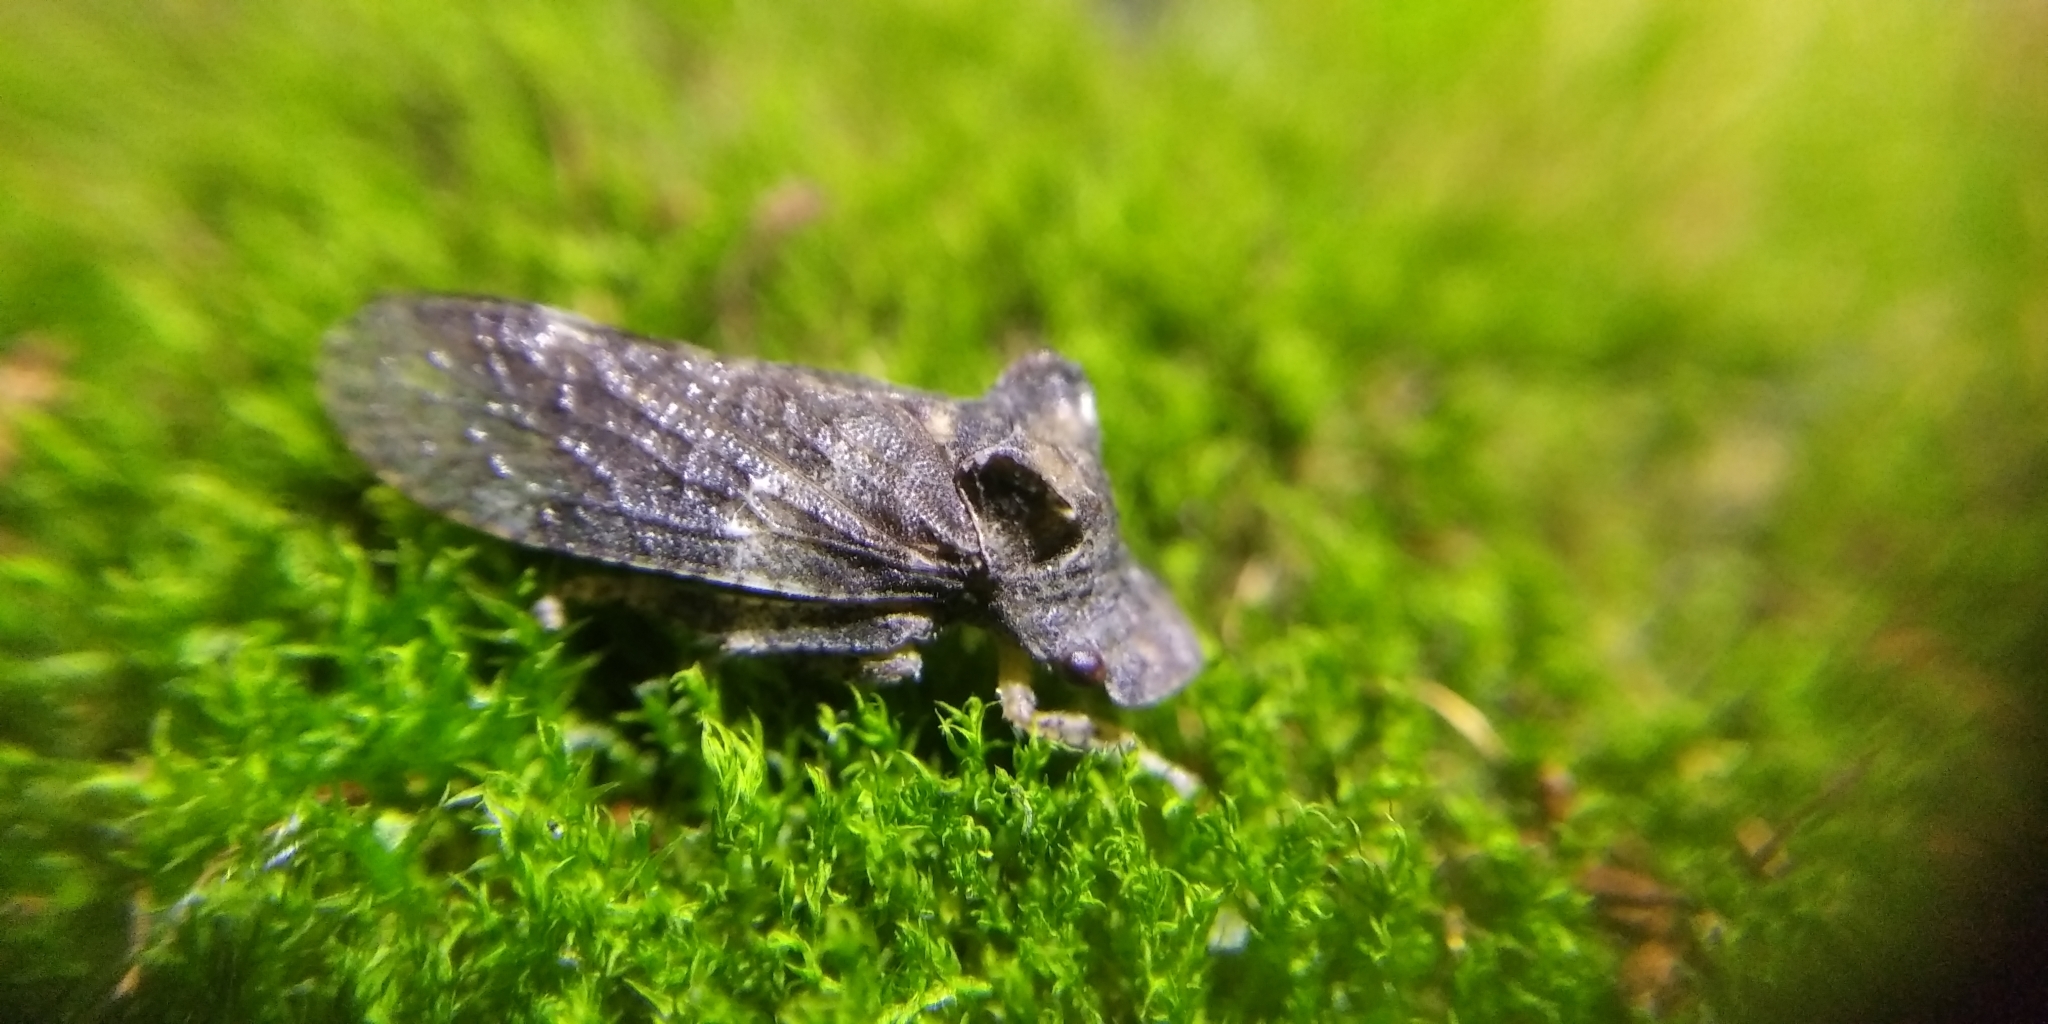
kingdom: Animalia
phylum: Arthropoda
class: Insecta
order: Hemiptera
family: Cicadellidae
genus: Ledra
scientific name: Ledra aurita
